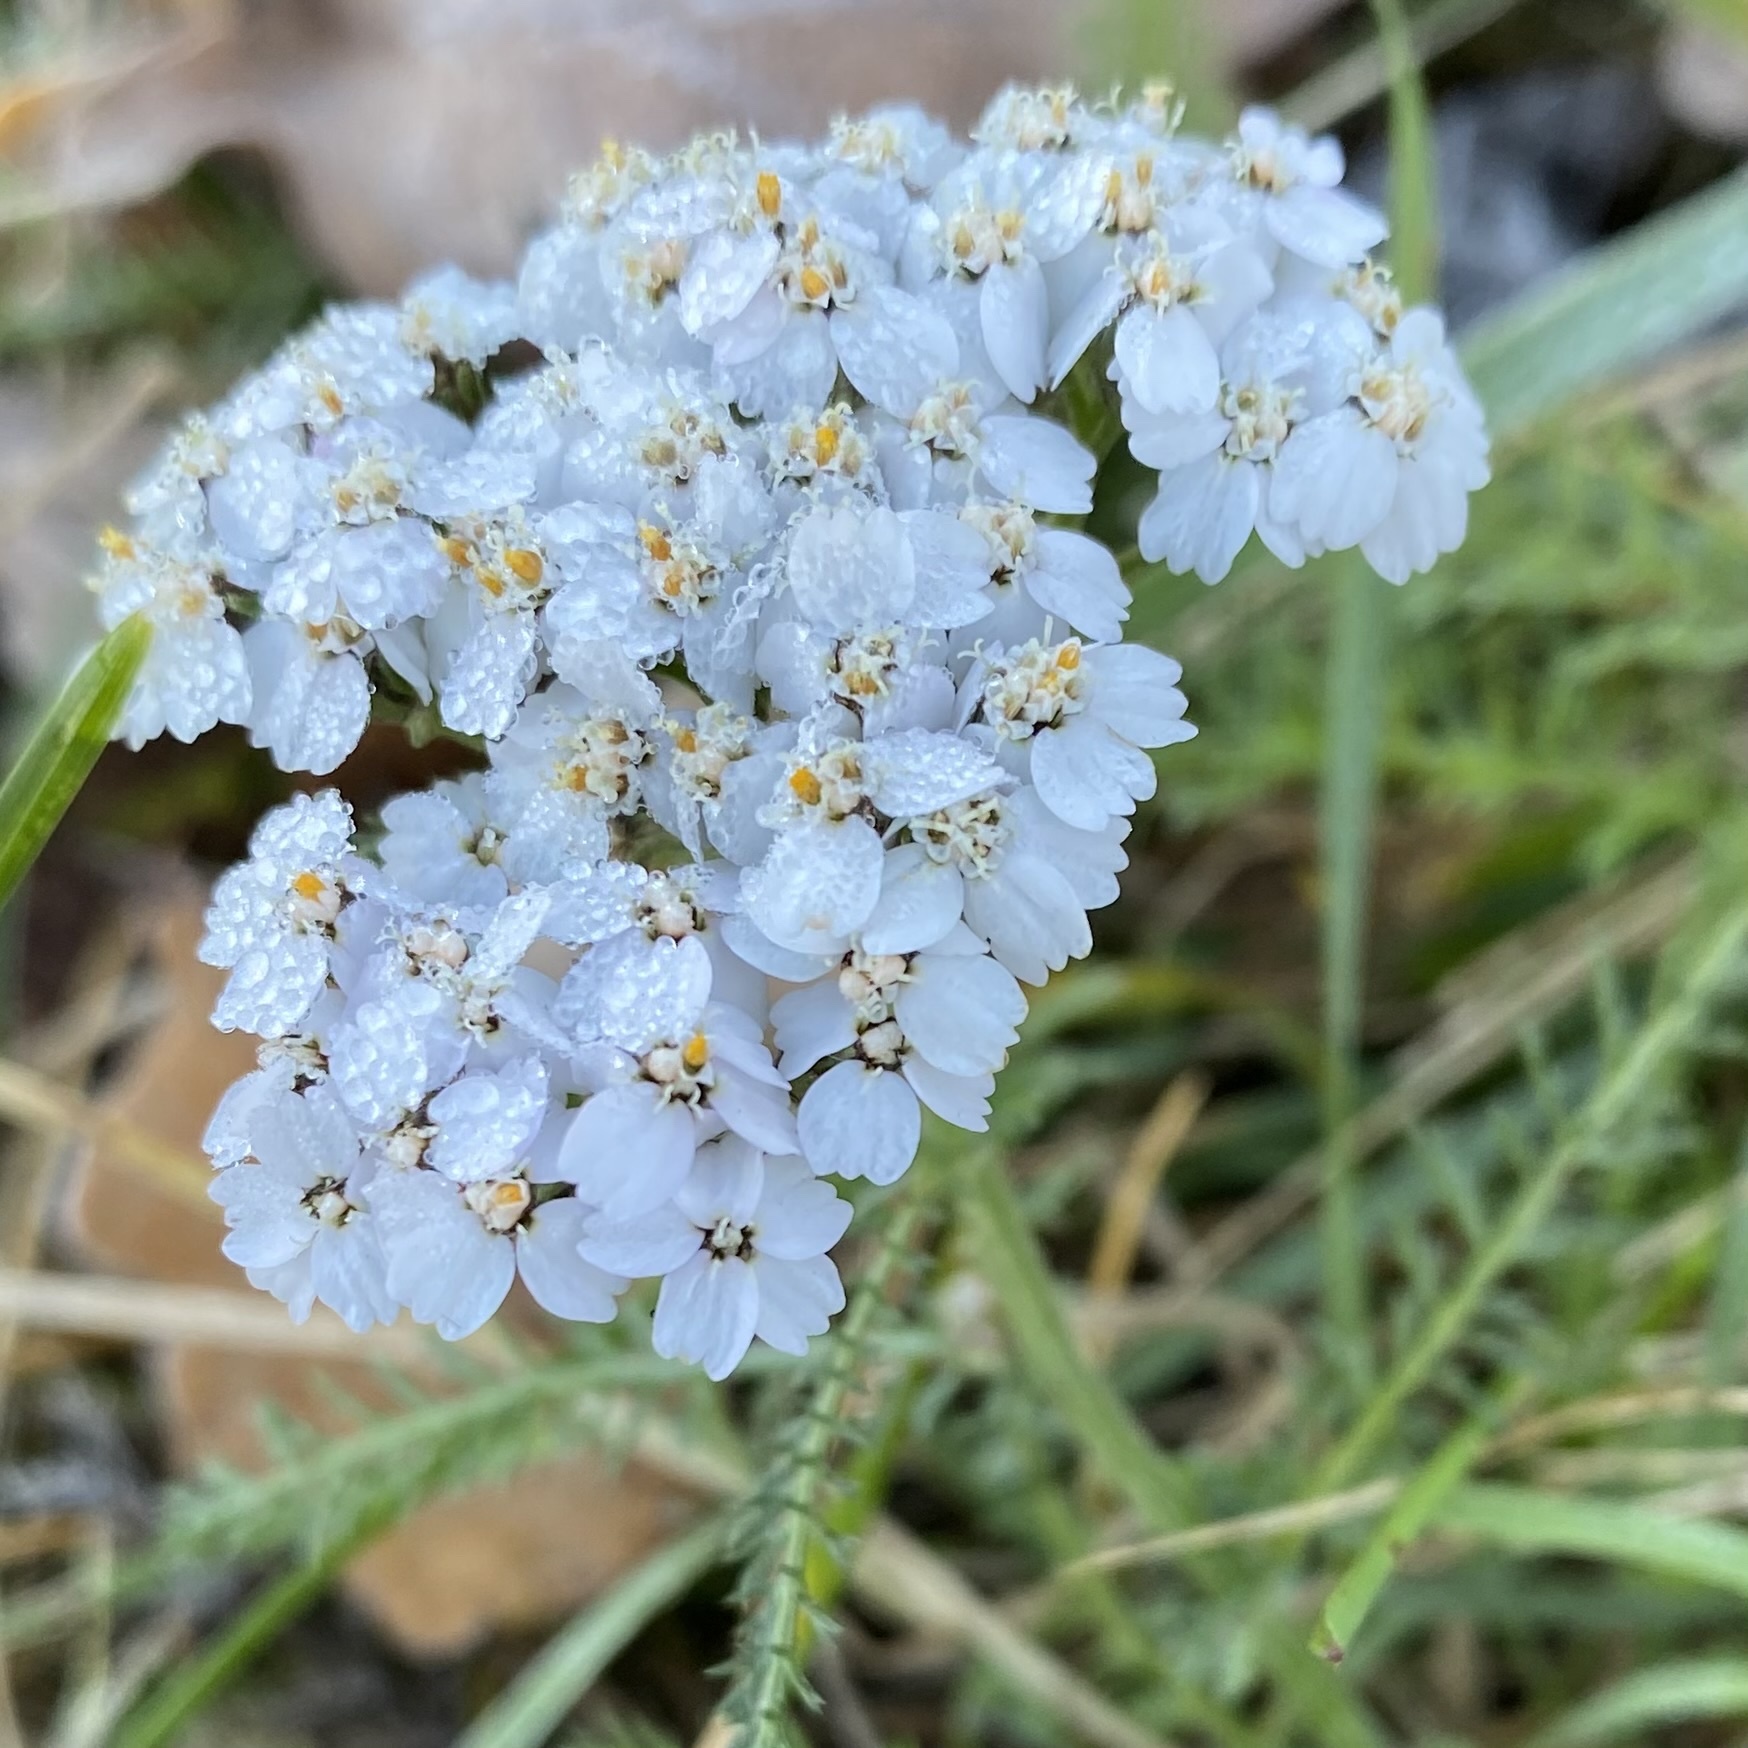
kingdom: Plantae
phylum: Tracheophyta
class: Magnoliopsida
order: Asterales
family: Asteraceae
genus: Achillea
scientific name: Achillea millefolium
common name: Yarrow
